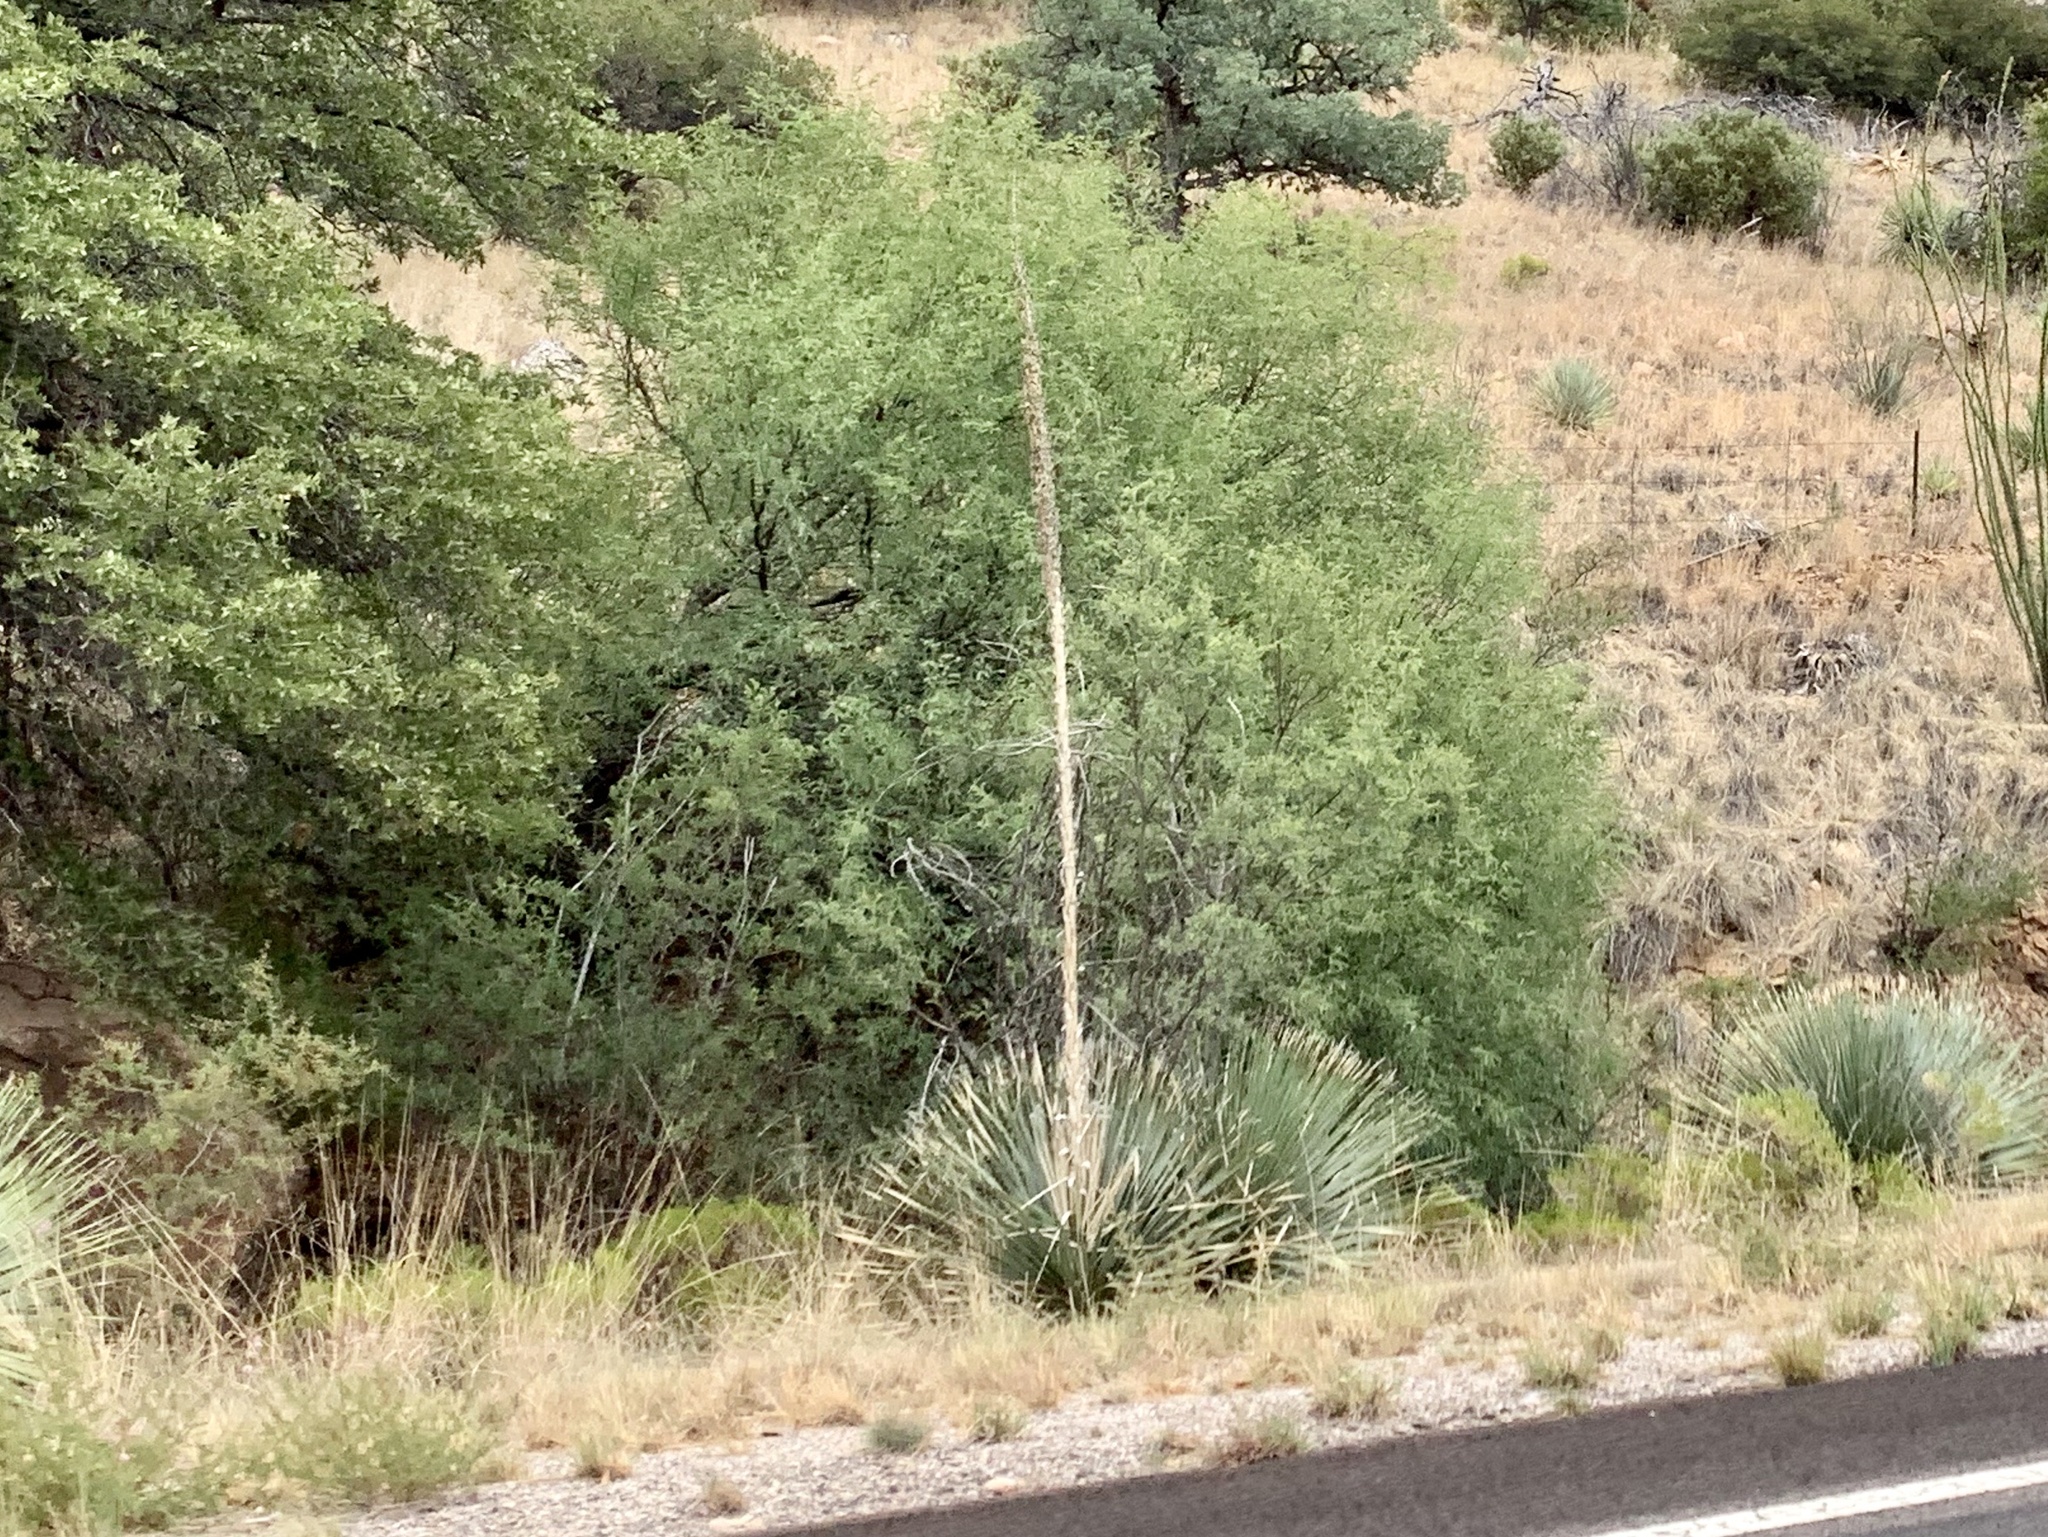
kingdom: Plantae
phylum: Tracheophyta
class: Liliopsida
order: Asparagales
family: Asparagaceae
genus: Dasylirion
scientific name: Dasylirion wheeleri
